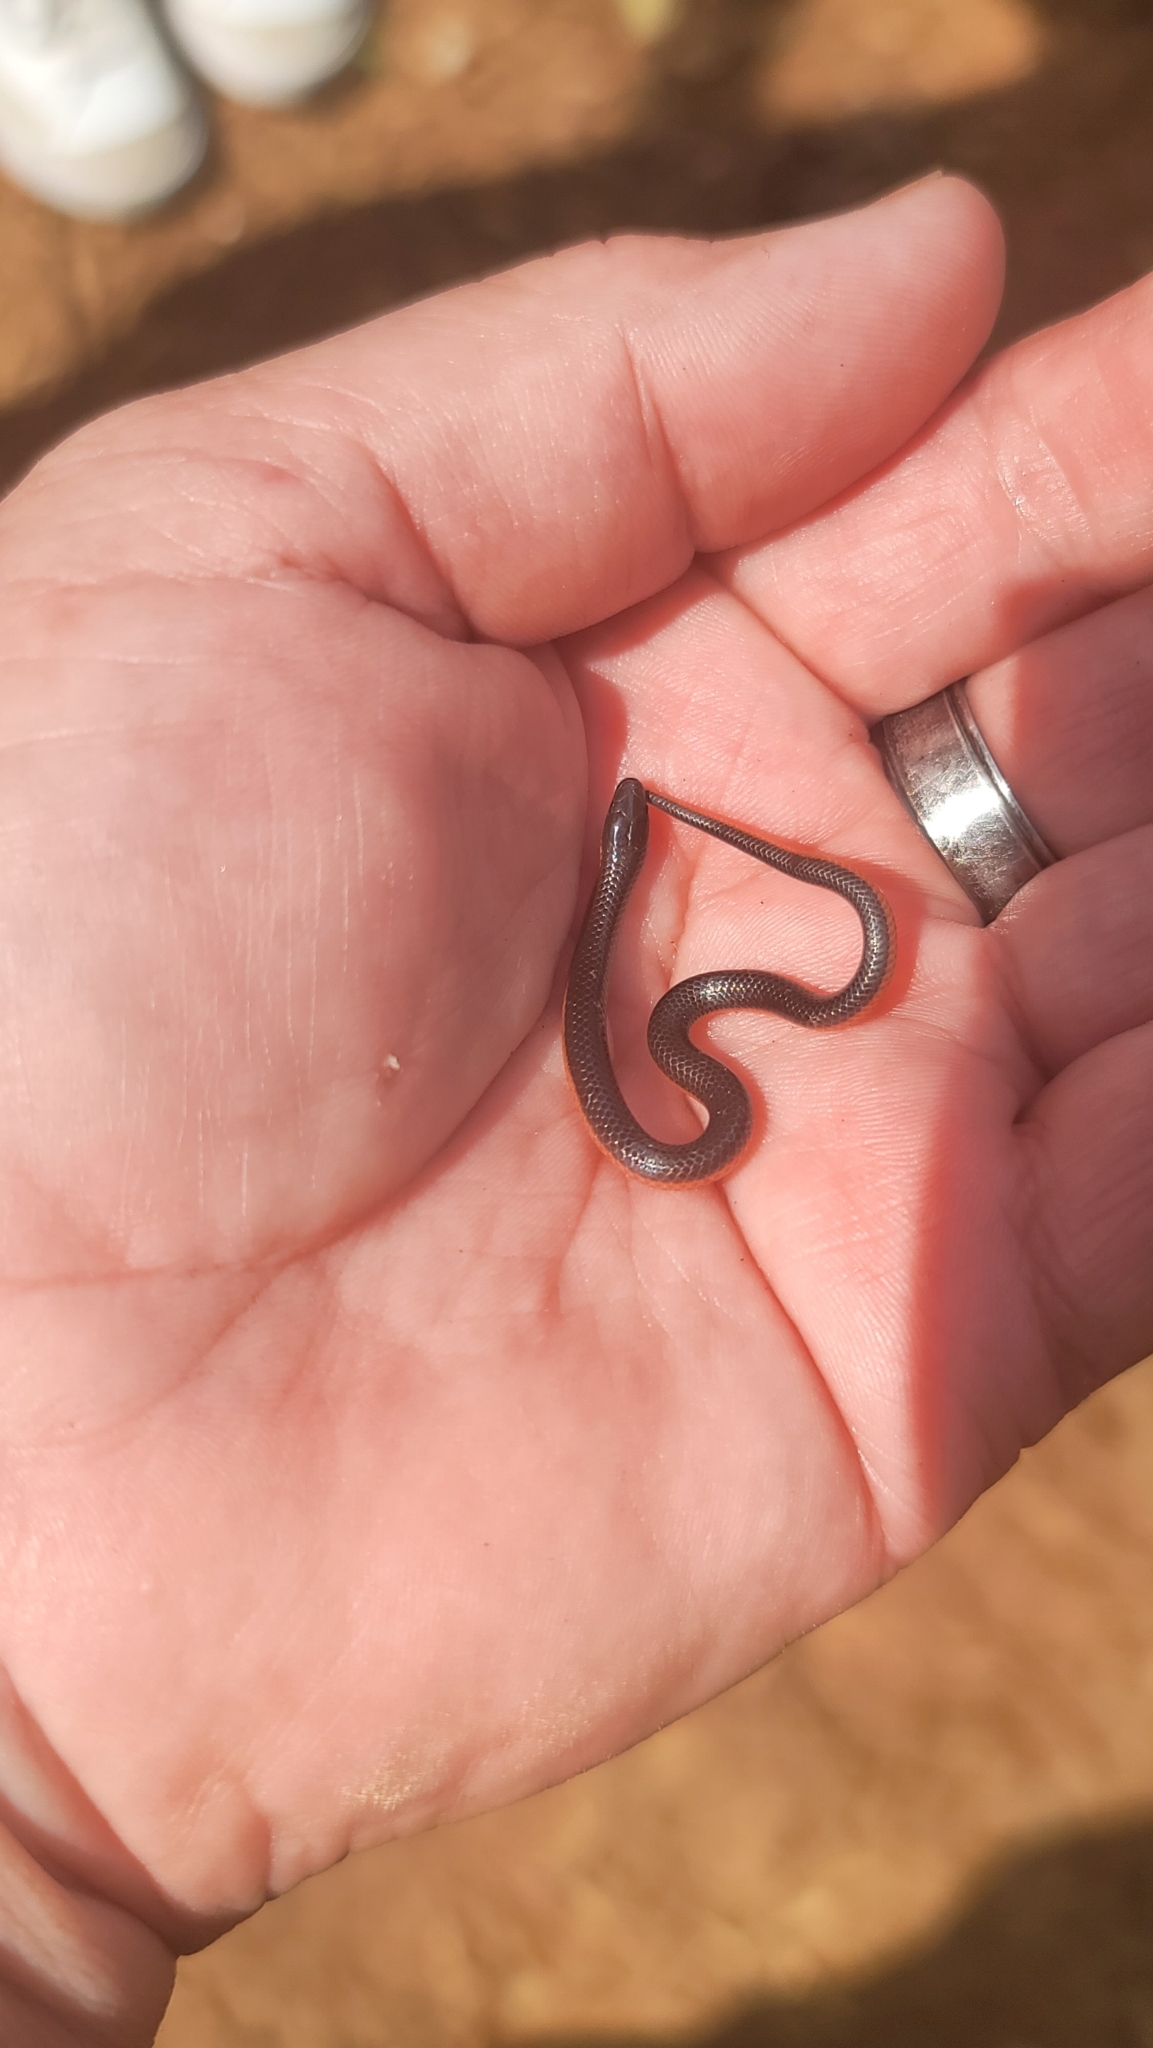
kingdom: Animalia
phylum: Chordata
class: Squamata
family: Colubridae
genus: Carphophis
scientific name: Carphophis amoenus
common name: Eastern worm snake
